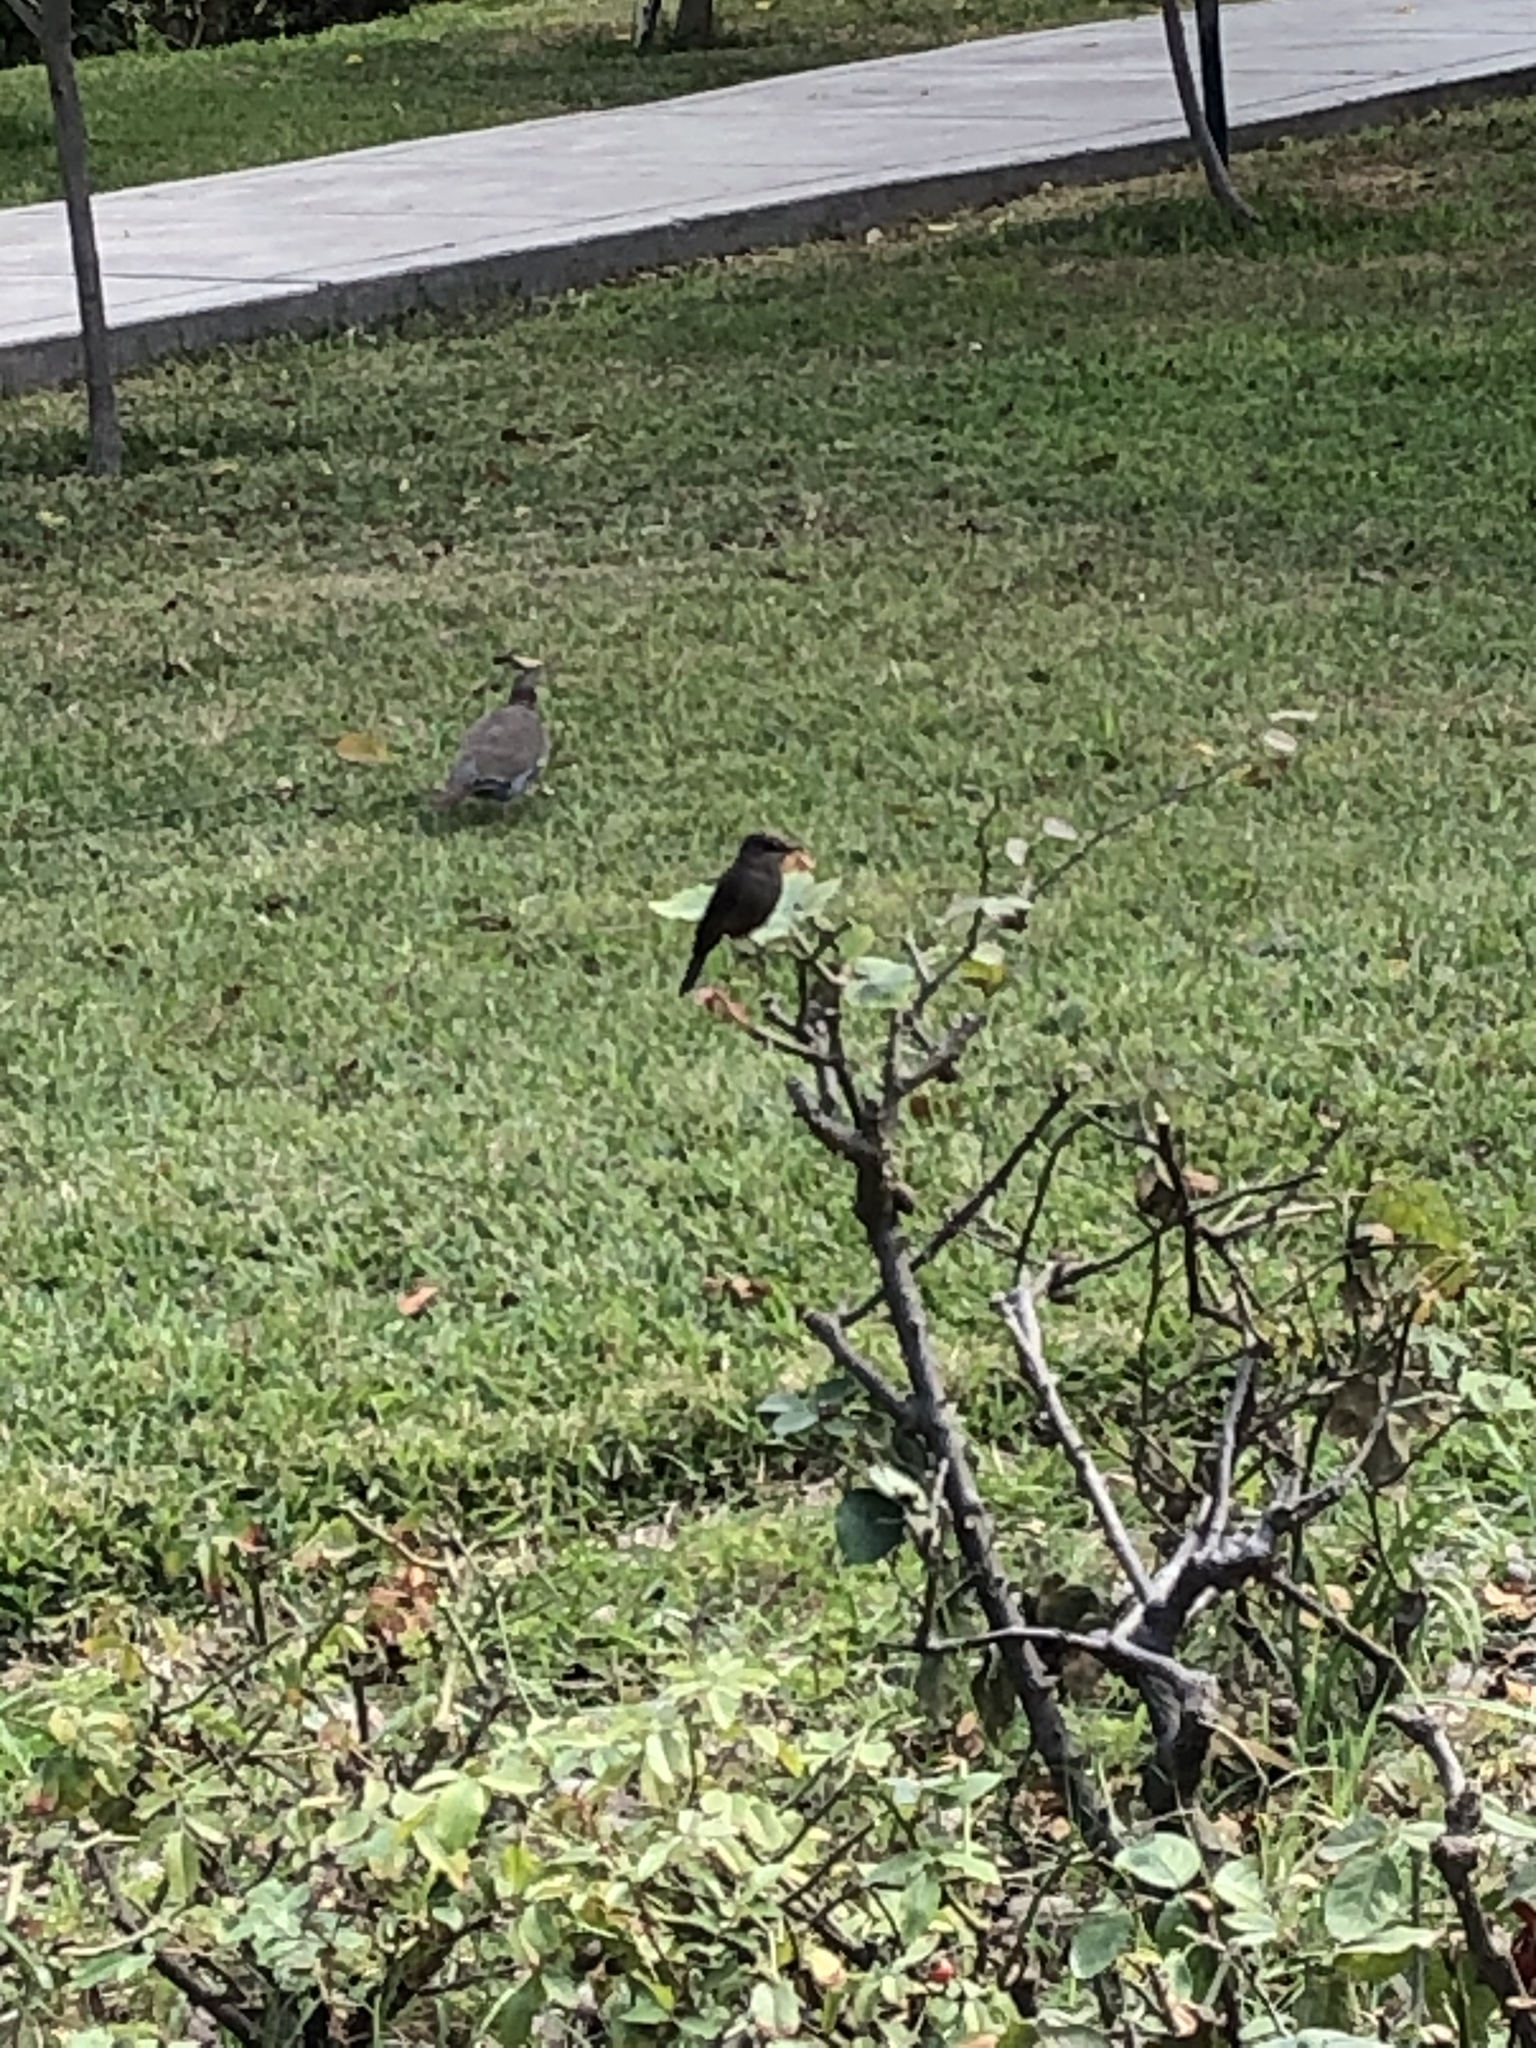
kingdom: Animalia
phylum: Chordata
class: Aves
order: Passeriformes
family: Tyrannidae
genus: Pyrocephalus
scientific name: Pyrocephalus rubinus
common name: Vermilion flycatcher
